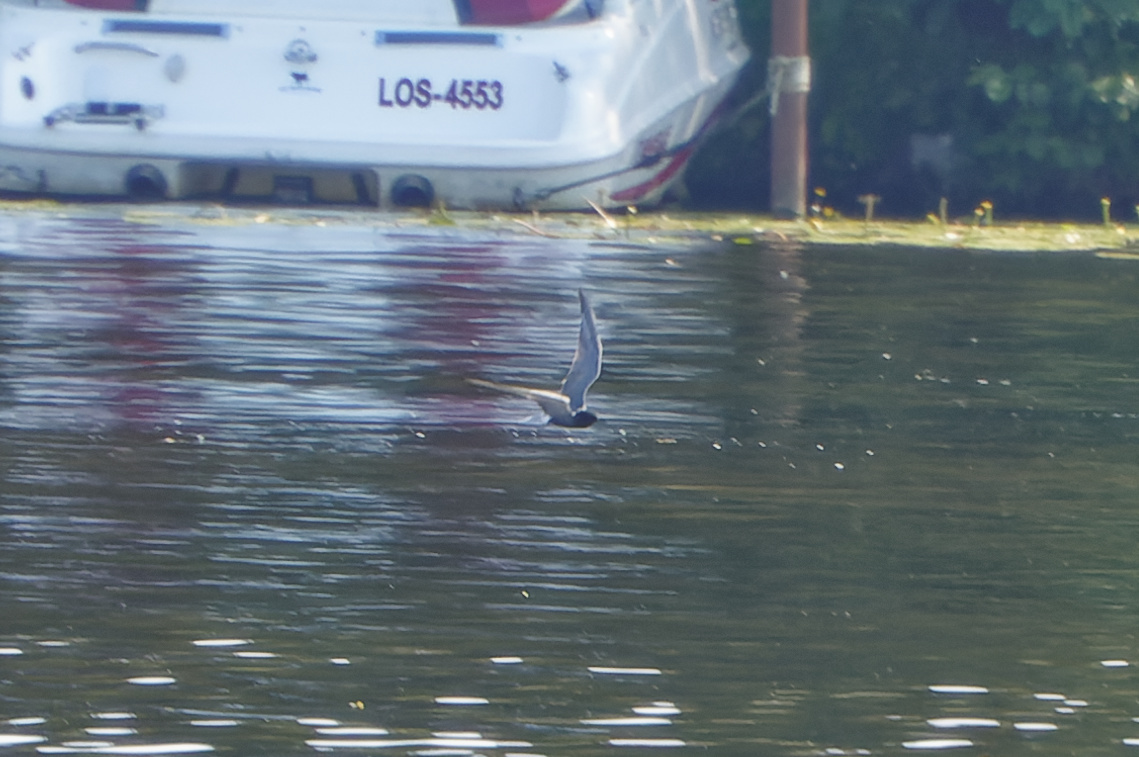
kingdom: Animalia
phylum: Chordata
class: Aves
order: Charadriiformes
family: Laridae
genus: Chlidonias
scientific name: Chlidonias niger
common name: Black tern
